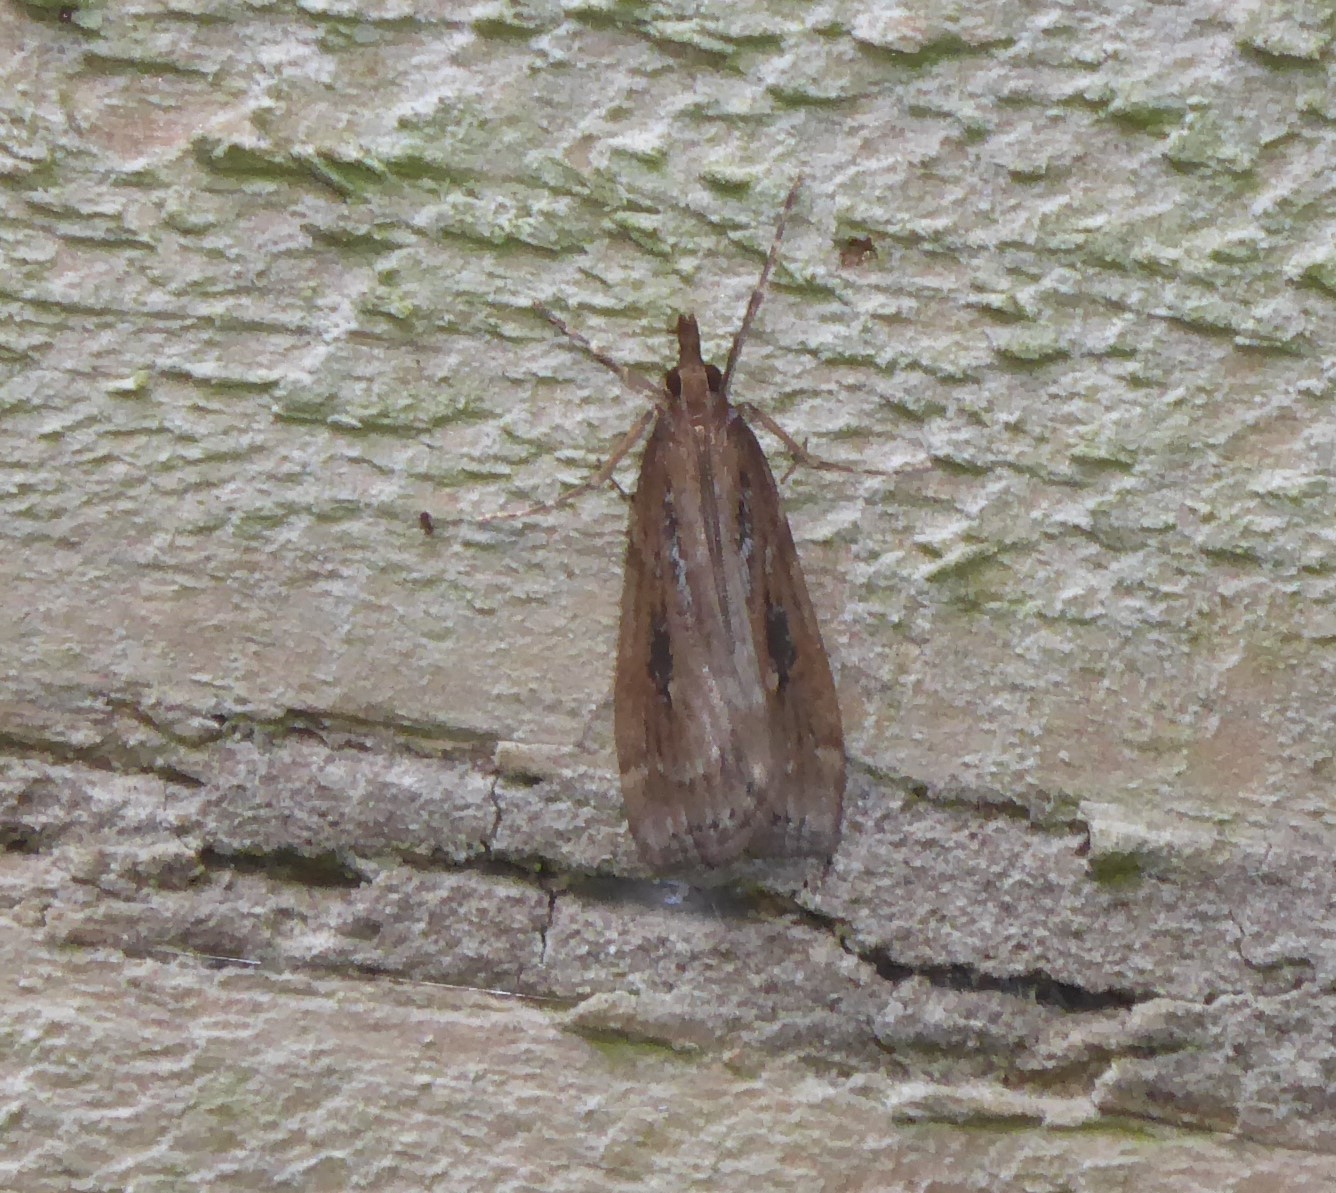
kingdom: Animalia
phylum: Arthropoda
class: Insecta
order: Lepidoptera
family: Crambidae
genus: Eudonia
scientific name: Eudonia octophora
